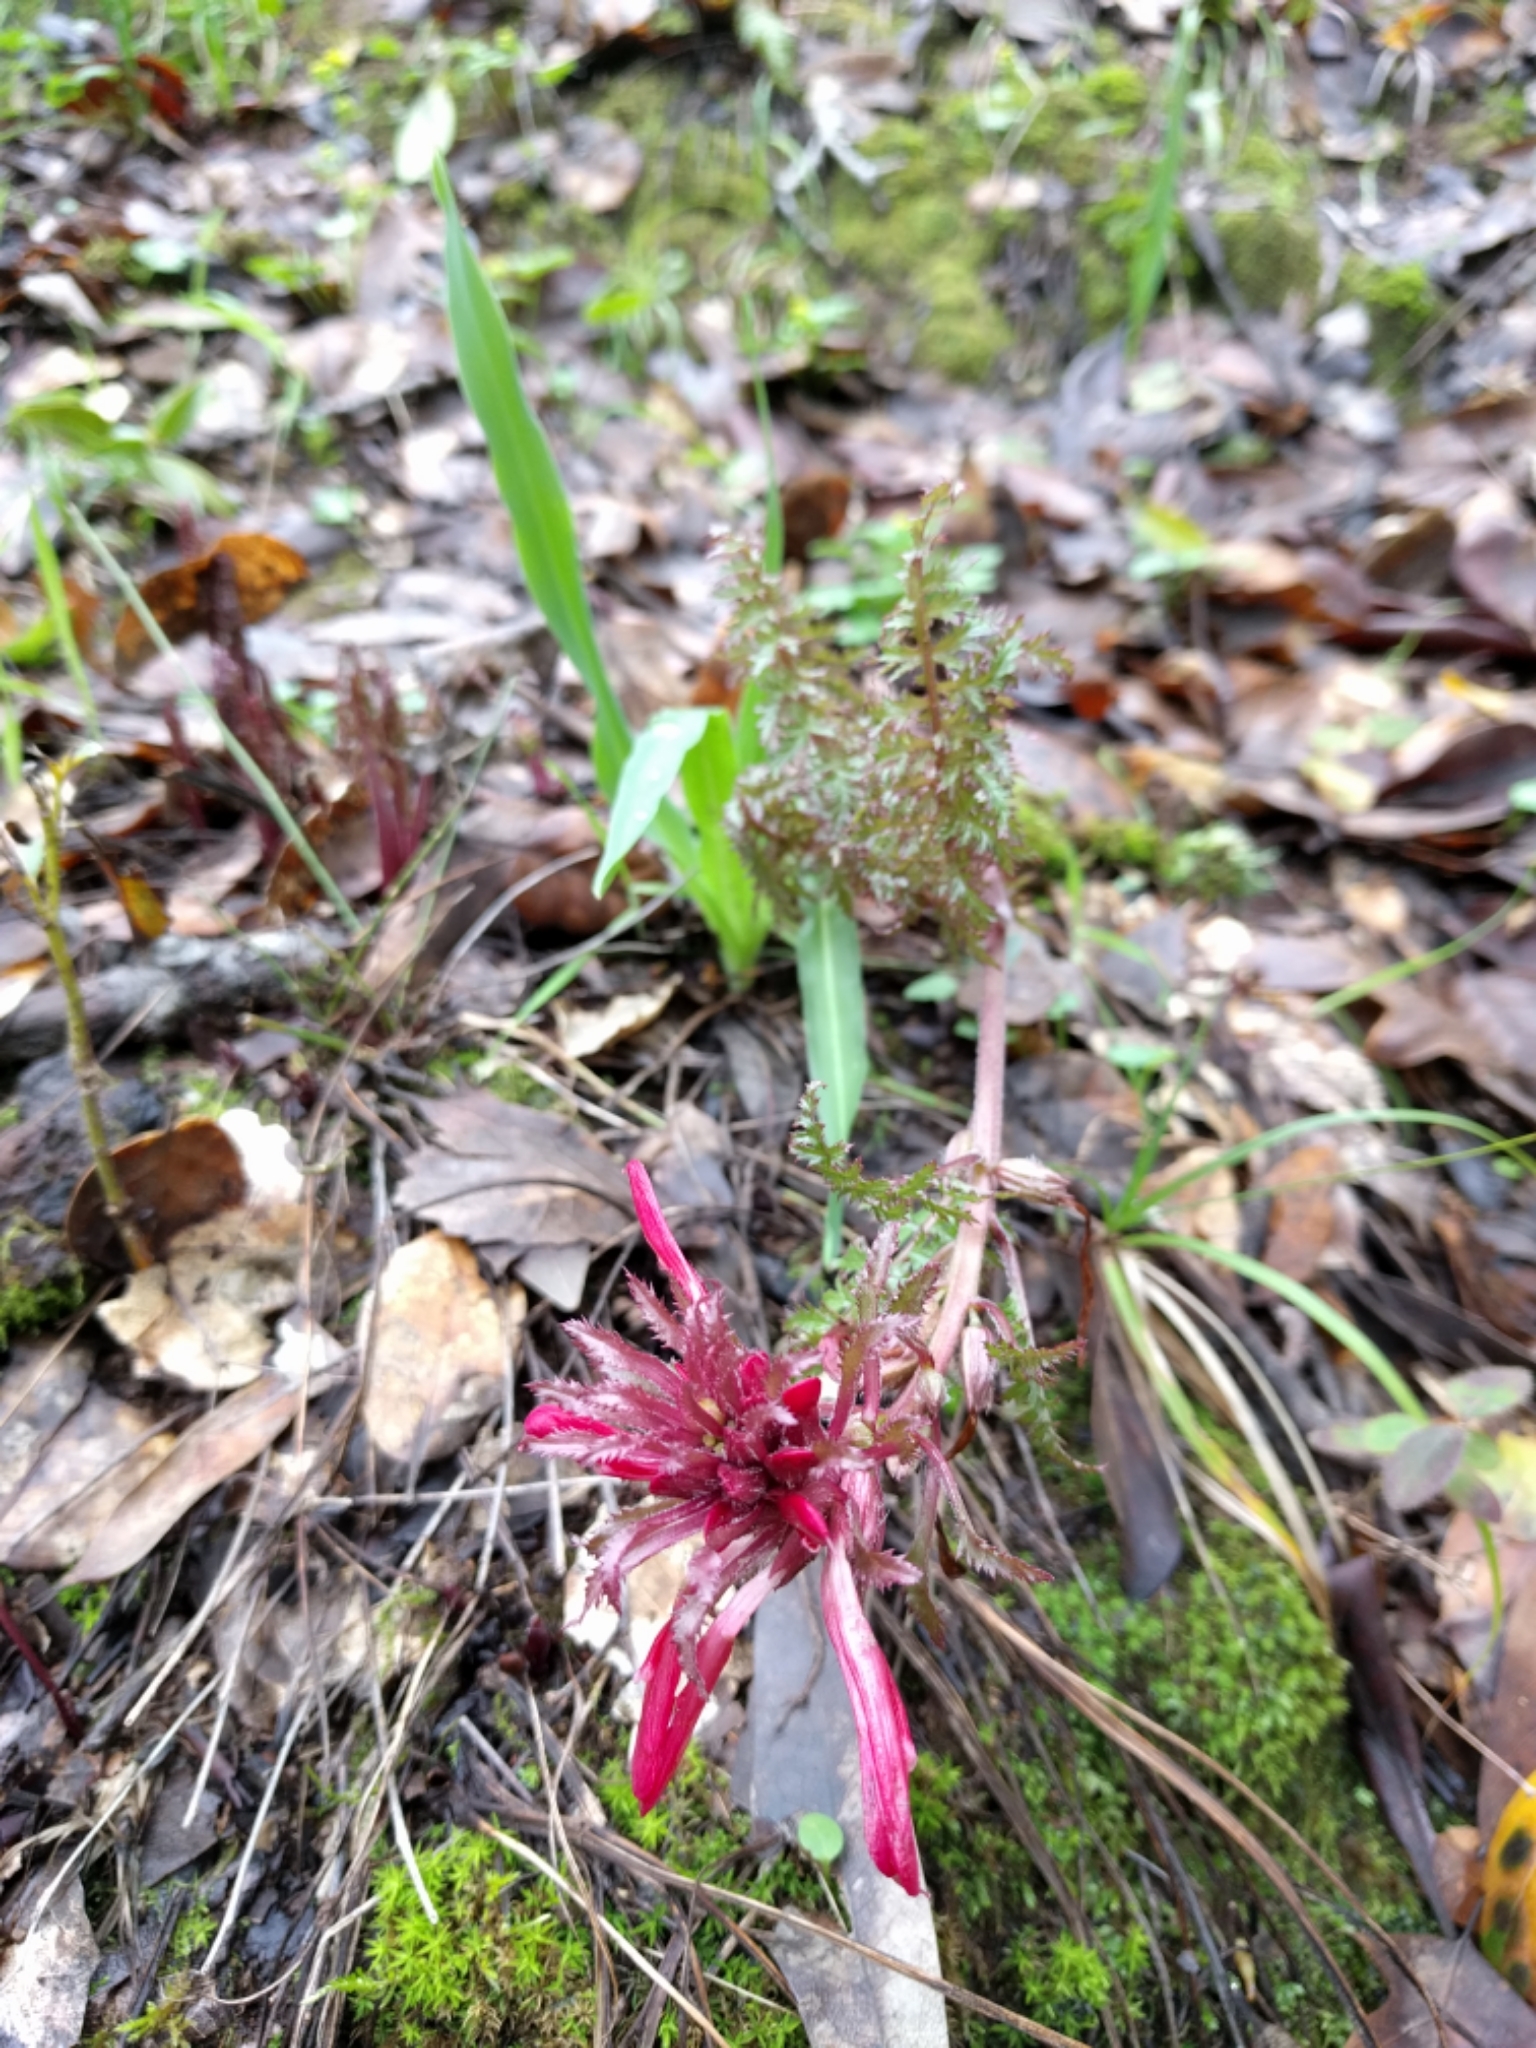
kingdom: Plantae
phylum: Tracheophyta
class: Magnoliopsida
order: Lamiales
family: Orobanchaceae
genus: Pedicularis
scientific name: Pedicularis densiflora
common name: Indian warrior
